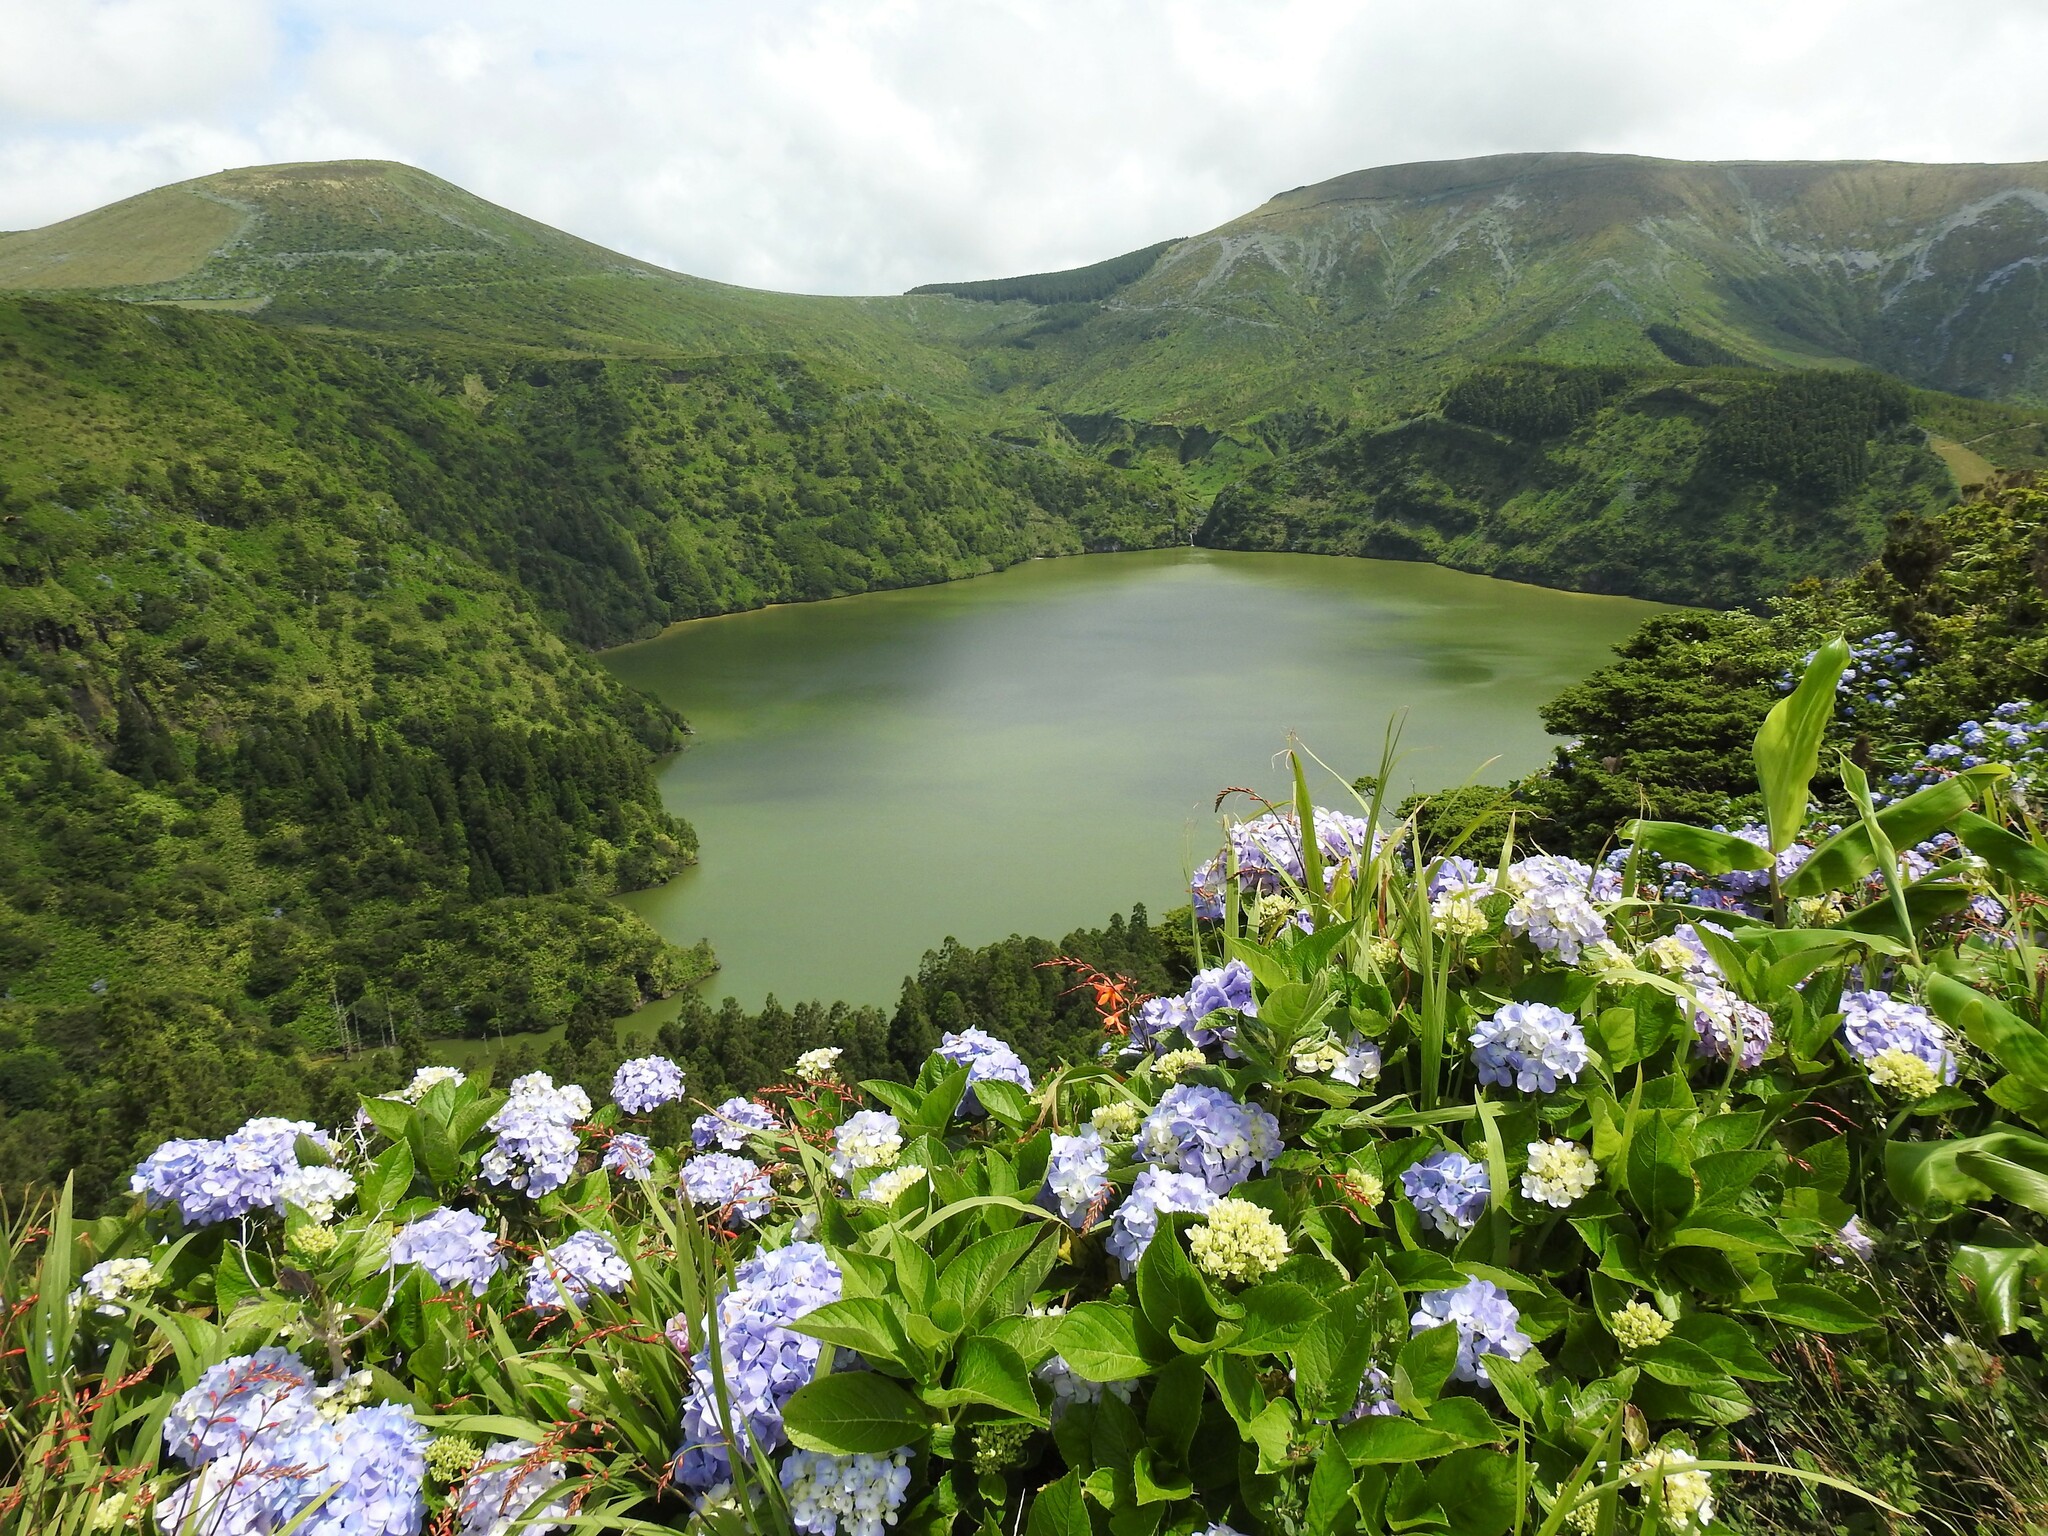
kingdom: Plantae
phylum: Tracheophyta
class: Magnoliopsida
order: Cornales
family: Hydrangeaceae
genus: Hydrangea
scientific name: Hydrangea macrophylla
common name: Hydrangea
